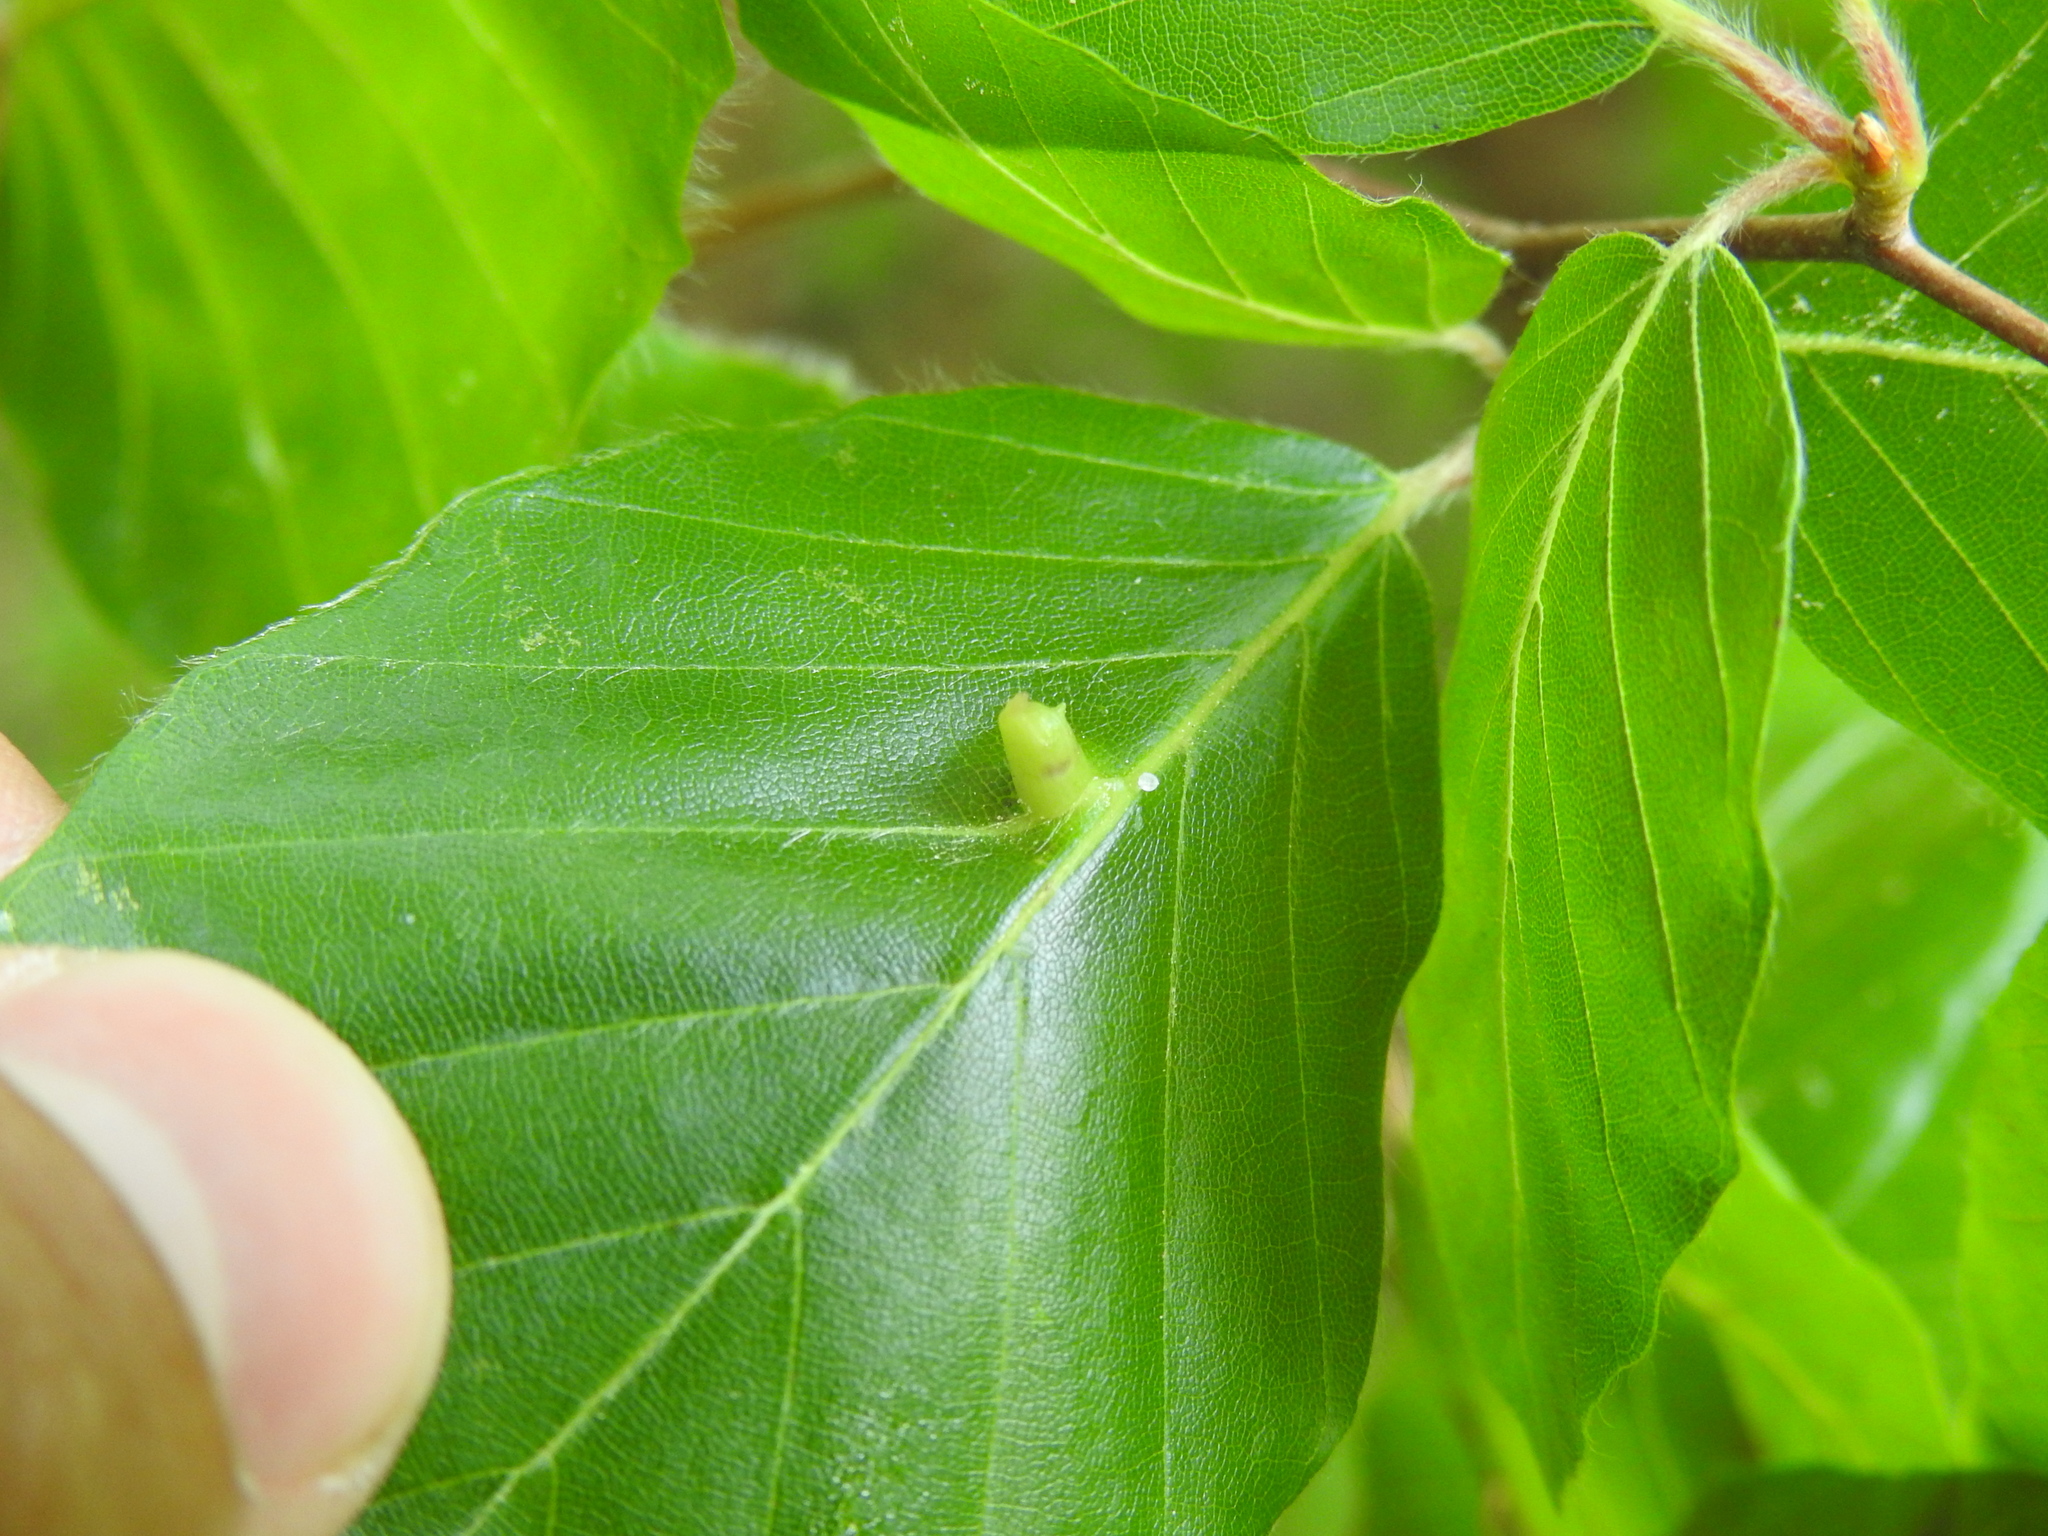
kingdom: Animalia
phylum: Arthropoda
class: Insecta
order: Diptera
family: Cecidomyiidae
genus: Mikiola
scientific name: Mikiola fagi
